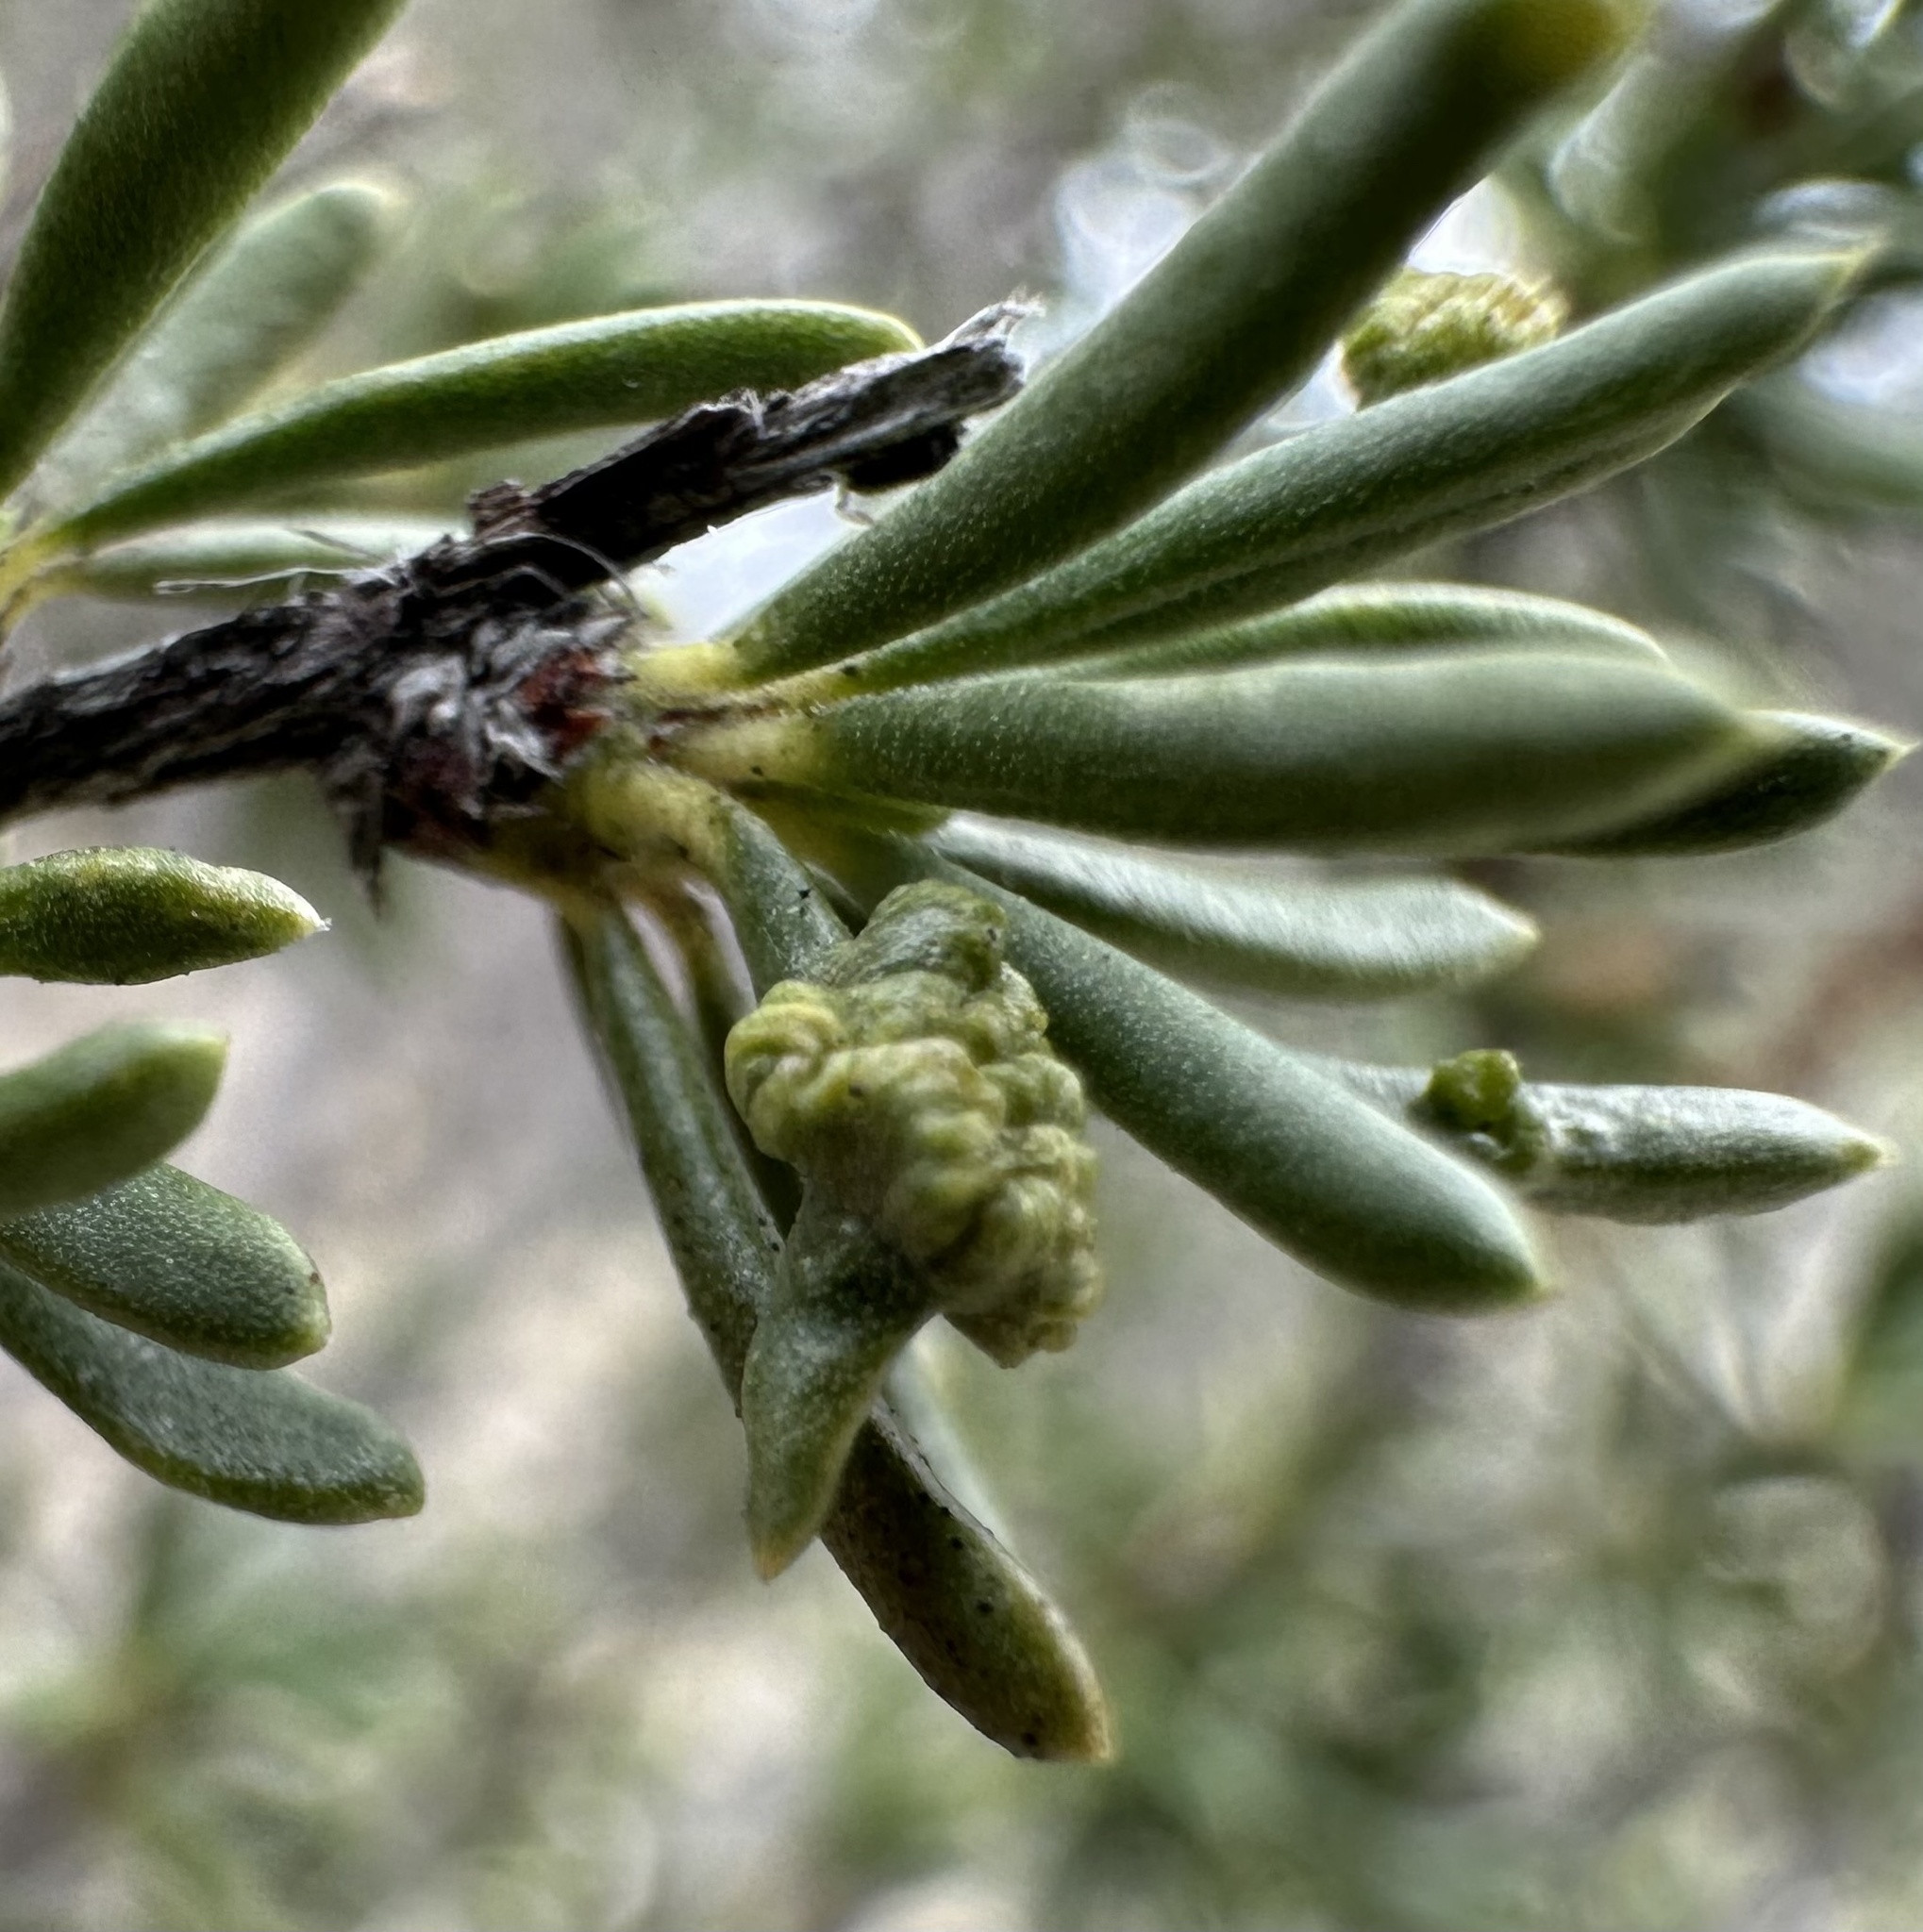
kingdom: Animalia
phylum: Arthropoda
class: Arachnida
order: Trombidiformes
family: Eriophyidae
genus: Eriophyes
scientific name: Eriophyes
